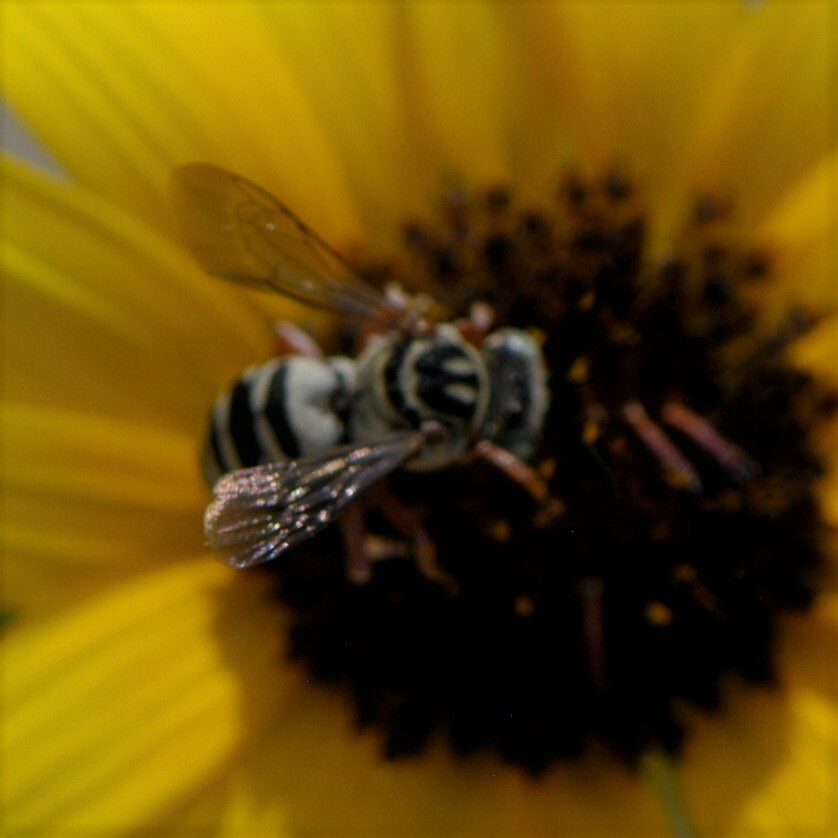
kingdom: Animalia
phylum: Arthropoda
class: Insecta
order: Hymenoptera
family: Apidae
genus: Triepeolus
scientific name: Triepeolus
